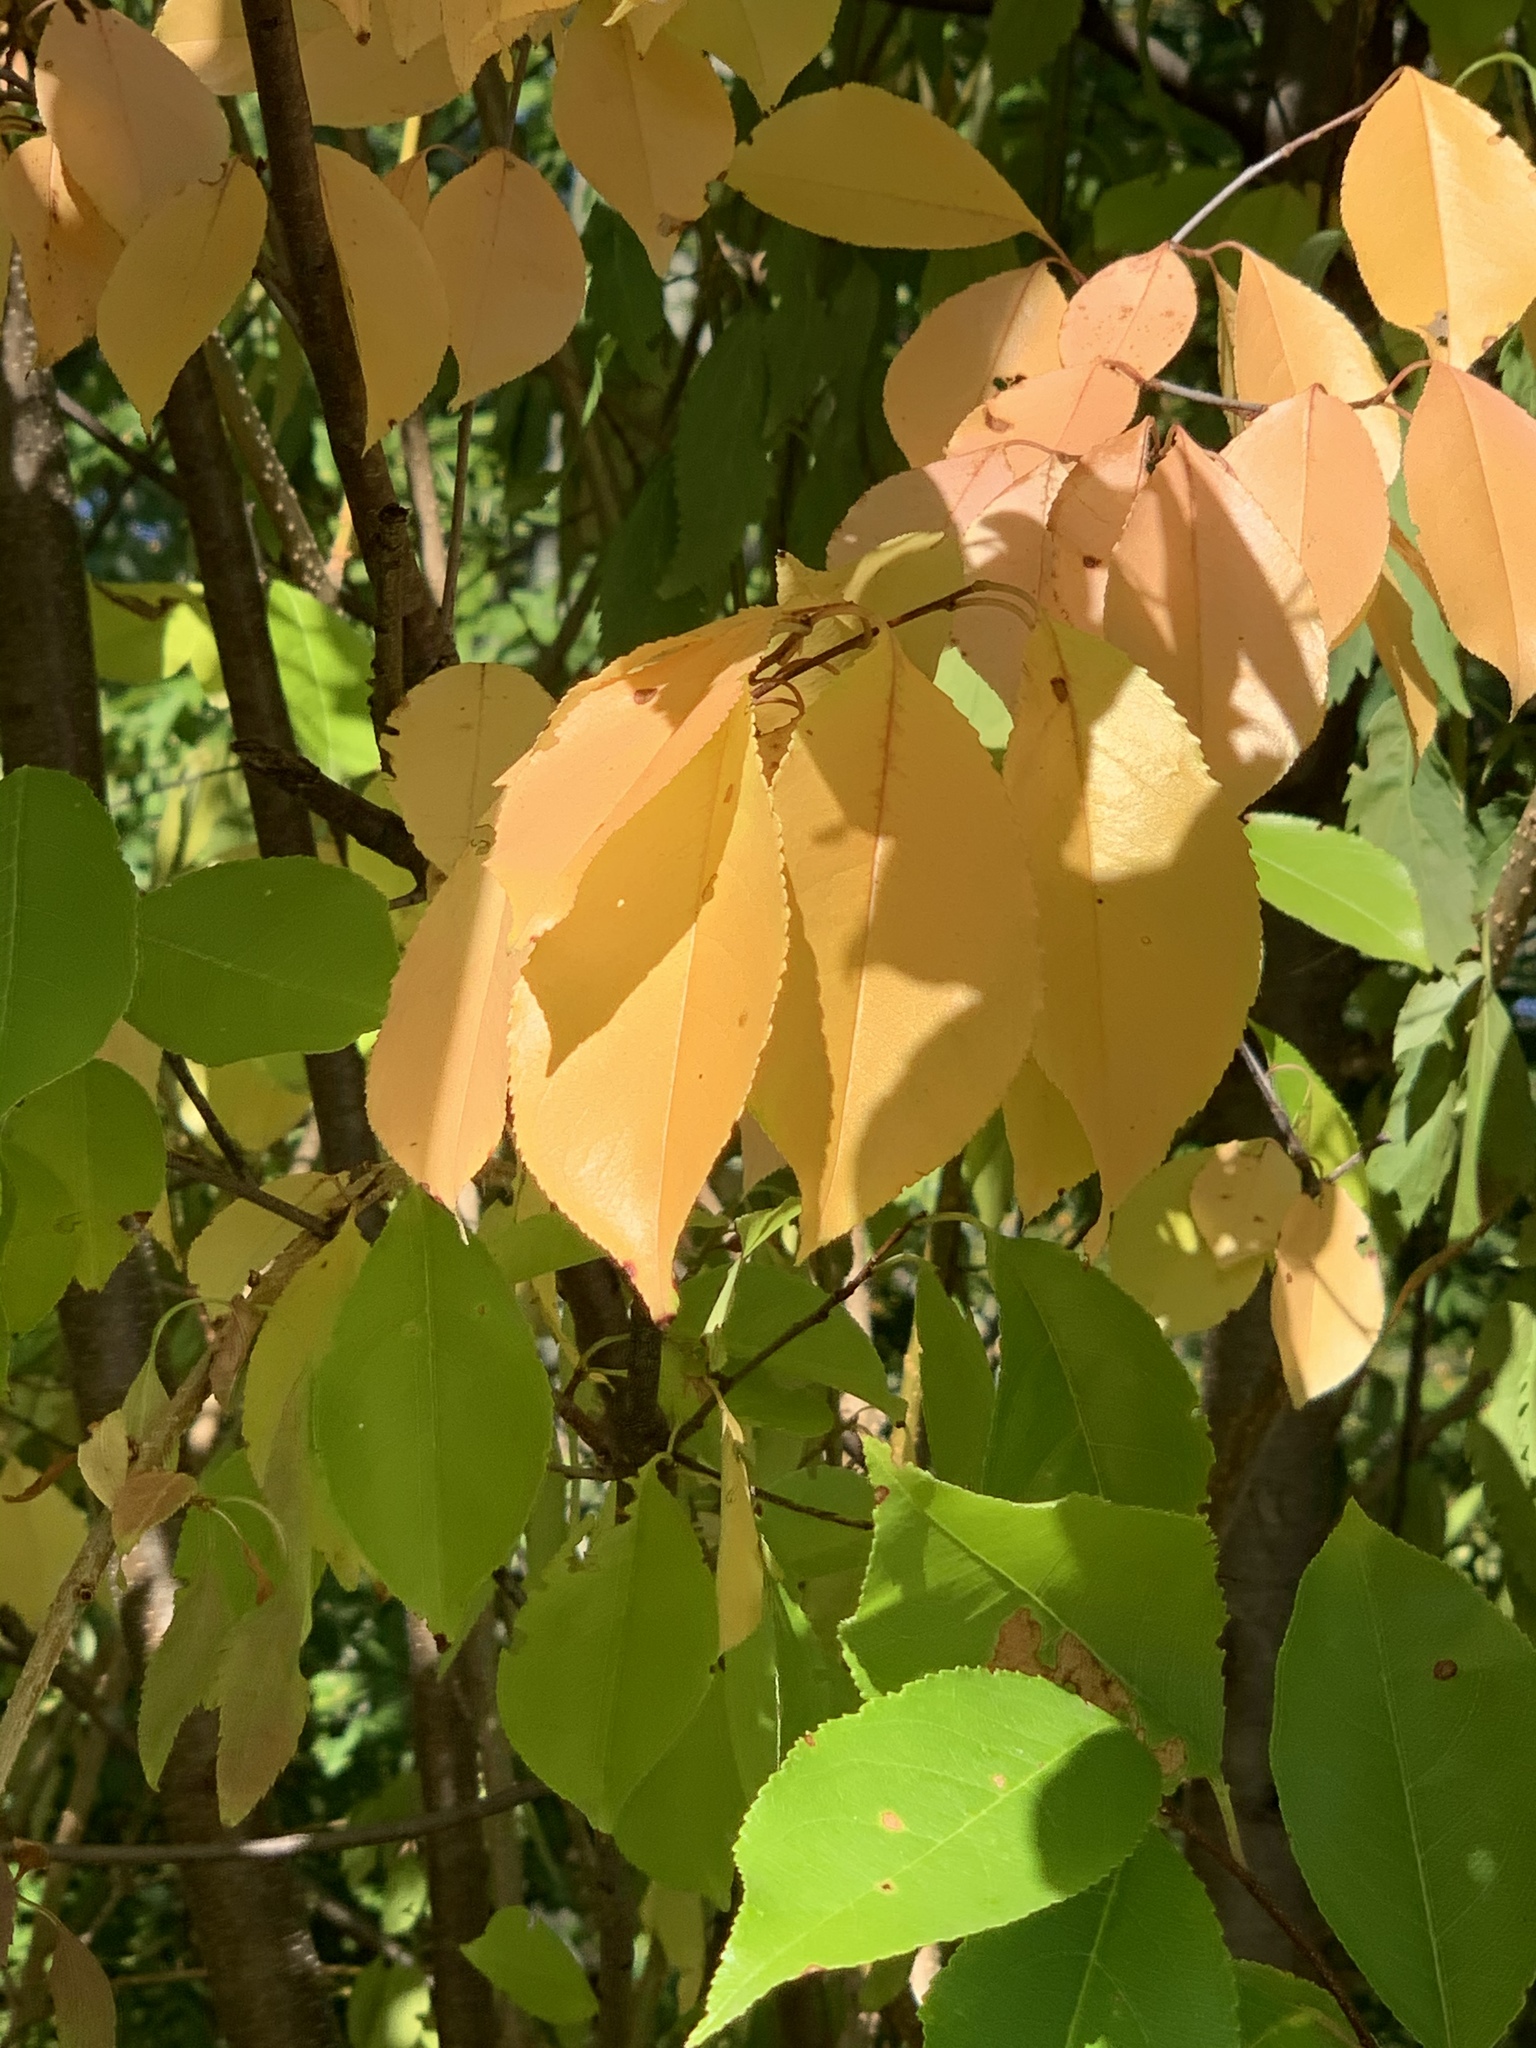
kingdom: Plantae
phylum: Tracheophyta
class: Magnoliopsida
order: Rosales
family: Rosaceae
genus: Prunus
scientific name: Prunus serotina
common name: Black cherry
